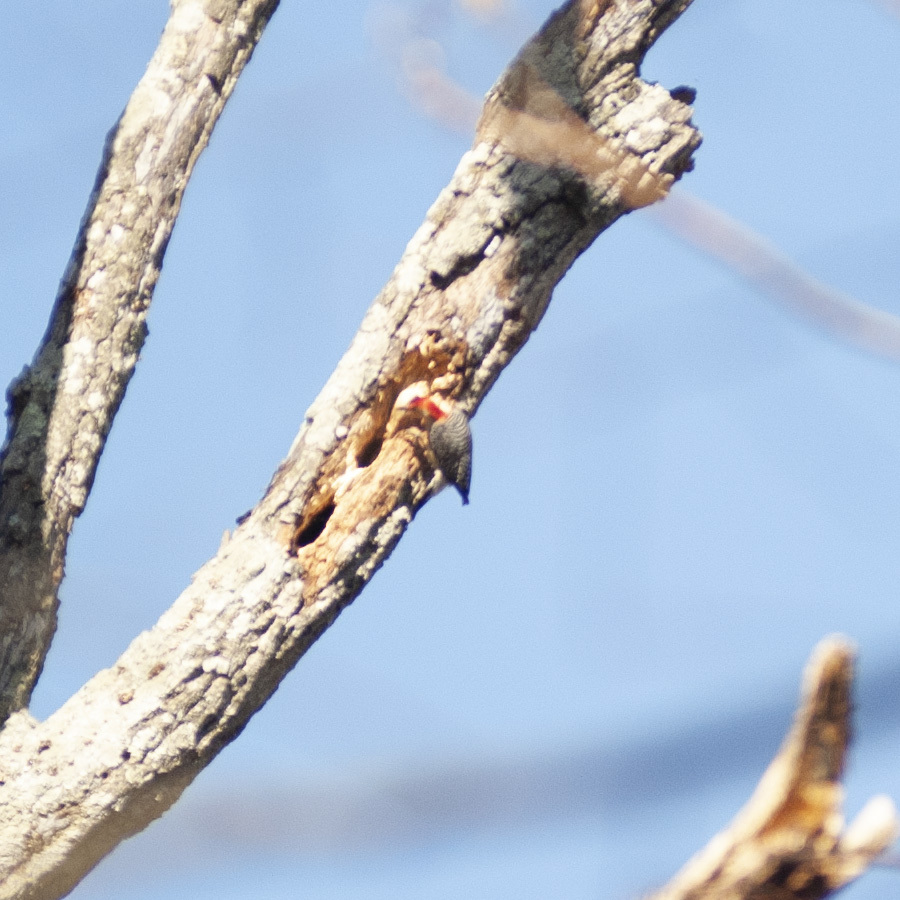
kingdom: Animalia
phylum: Chordata
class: Aves
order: Piciformes
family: Picidae
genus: Melanerpes
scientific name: Melanerpes carolinus
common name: Red-bellied woodpecker
